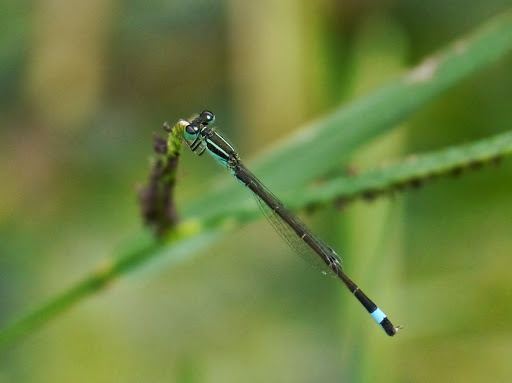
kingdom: Animalia
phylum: Arthropoda
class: Insecta
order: Odonata
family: Coenagrionidae
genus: Ischnura
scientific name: Ischnura genei
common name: Island bluetail
